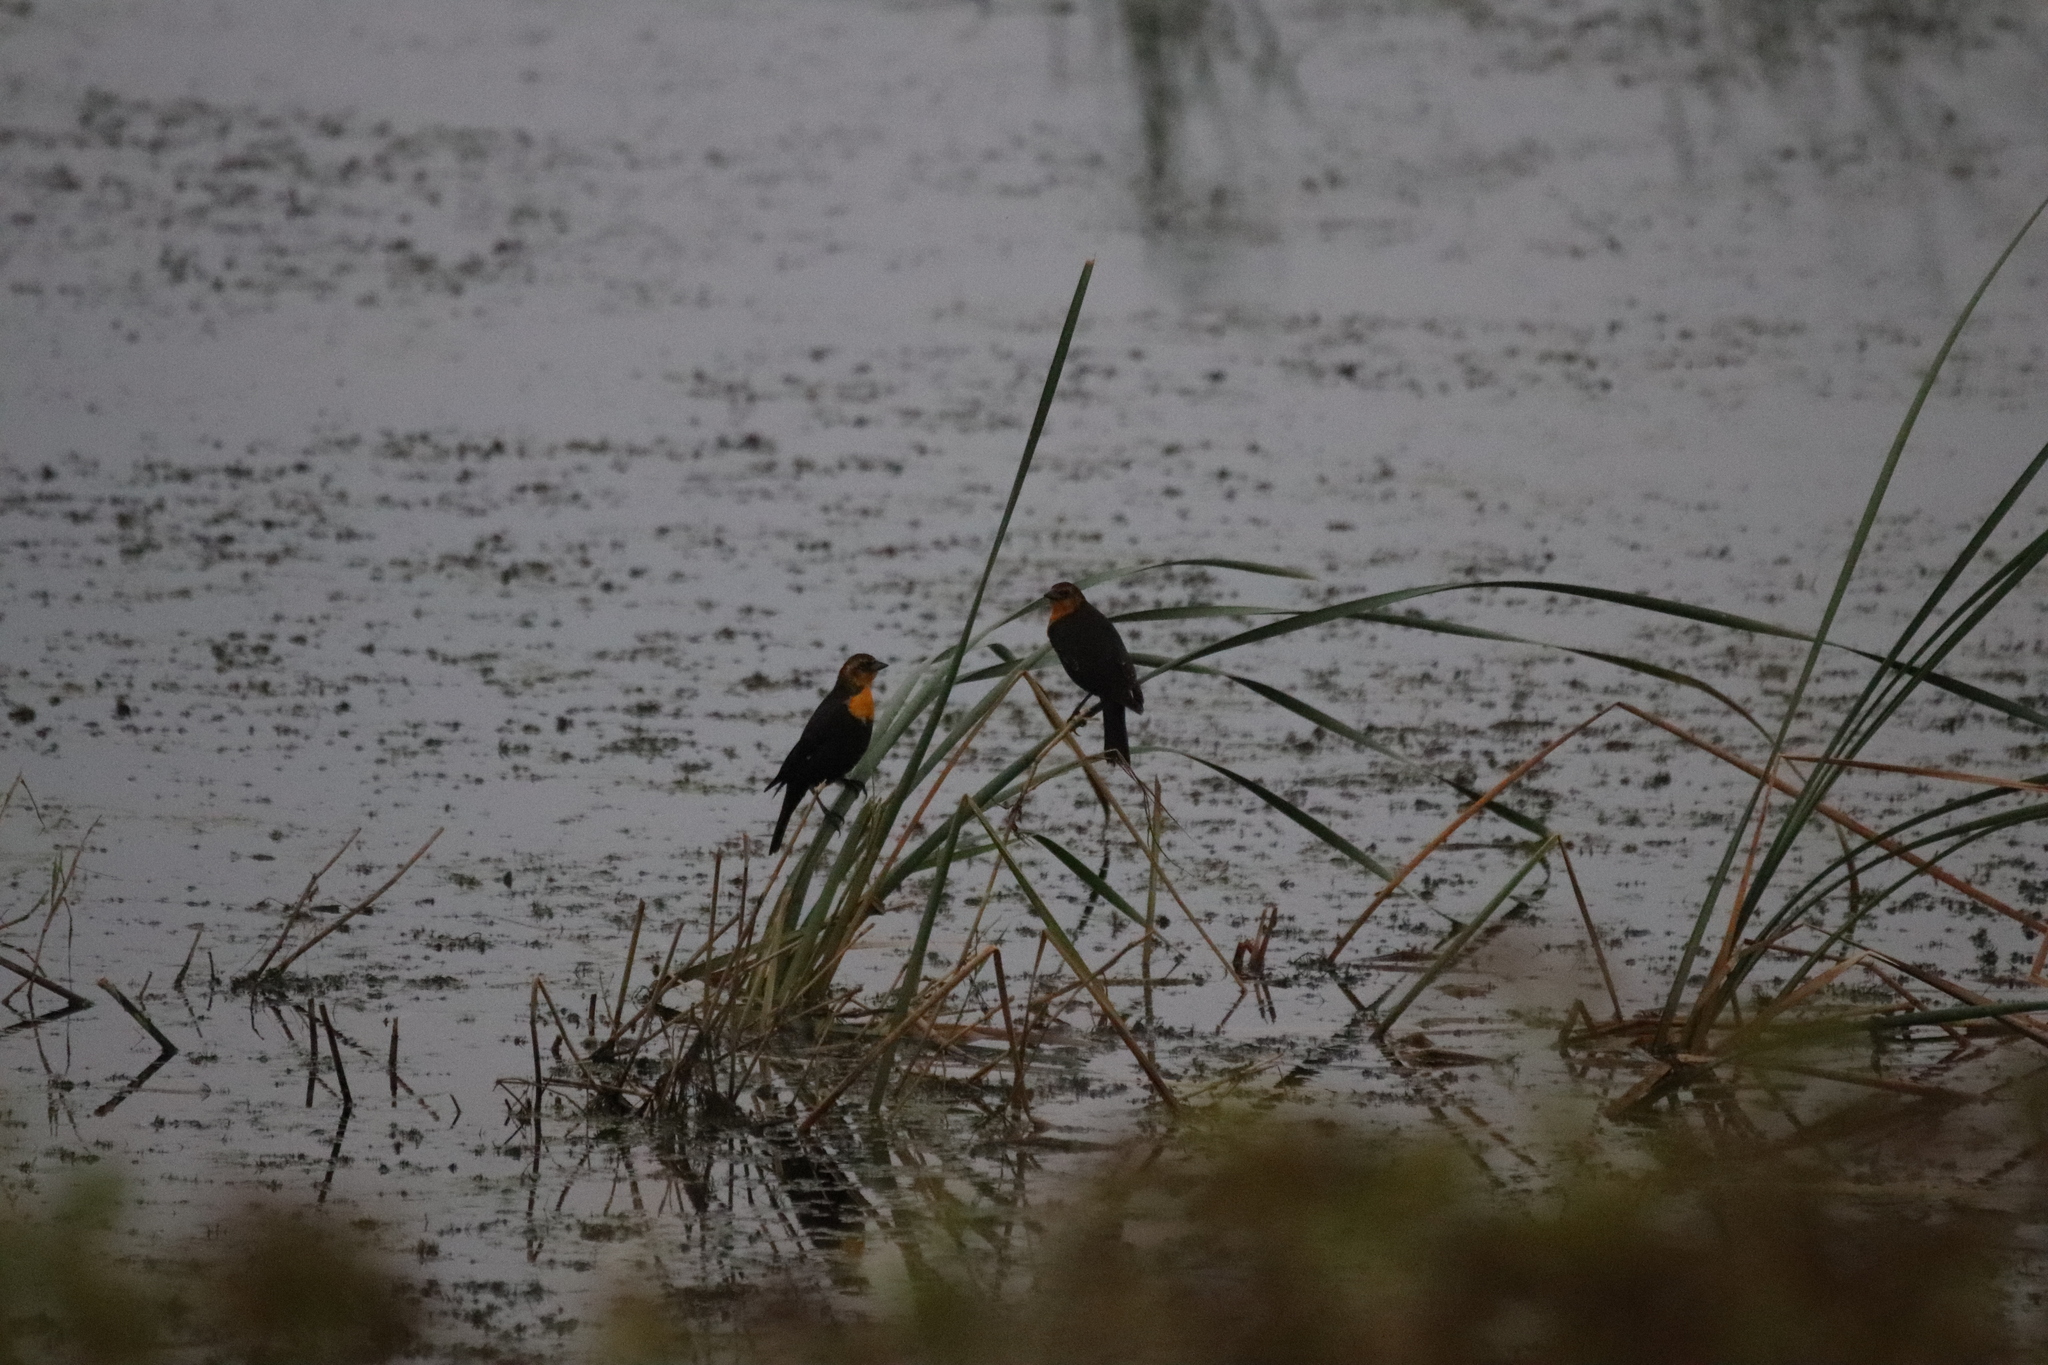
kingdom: Animalia
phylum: Chordata
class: Aves
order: Passeriformes
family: Icteridae
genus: Xanthocephalus
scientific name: Xanthocephalus xanthocephalus
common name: Yellow-headed blackbird
